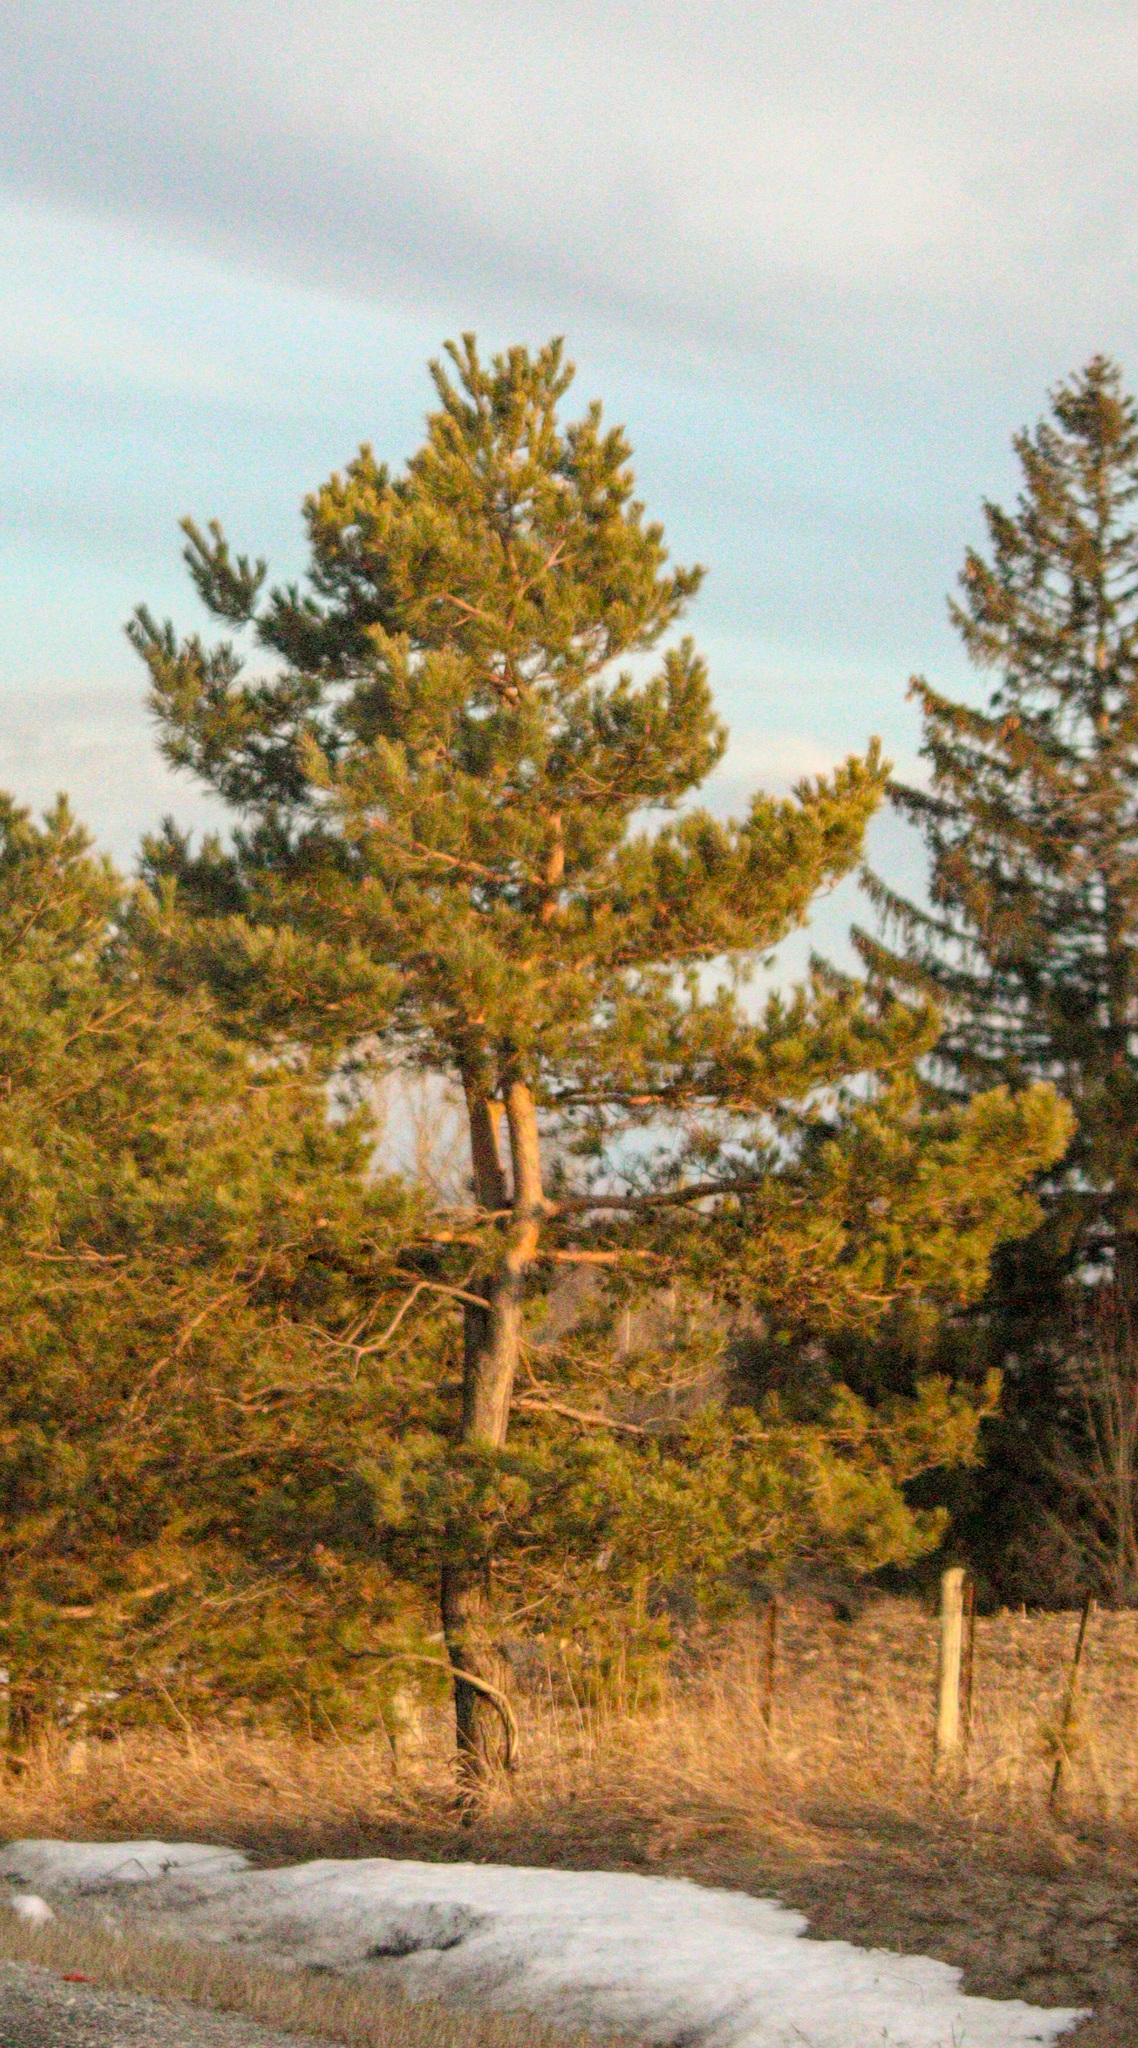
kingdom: Plantae
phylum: Tracheophyta
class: Pinopsida
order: Pinales
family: Pinaceae
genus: Pinus
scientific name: Pinus sylvestris
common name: Scots pine
